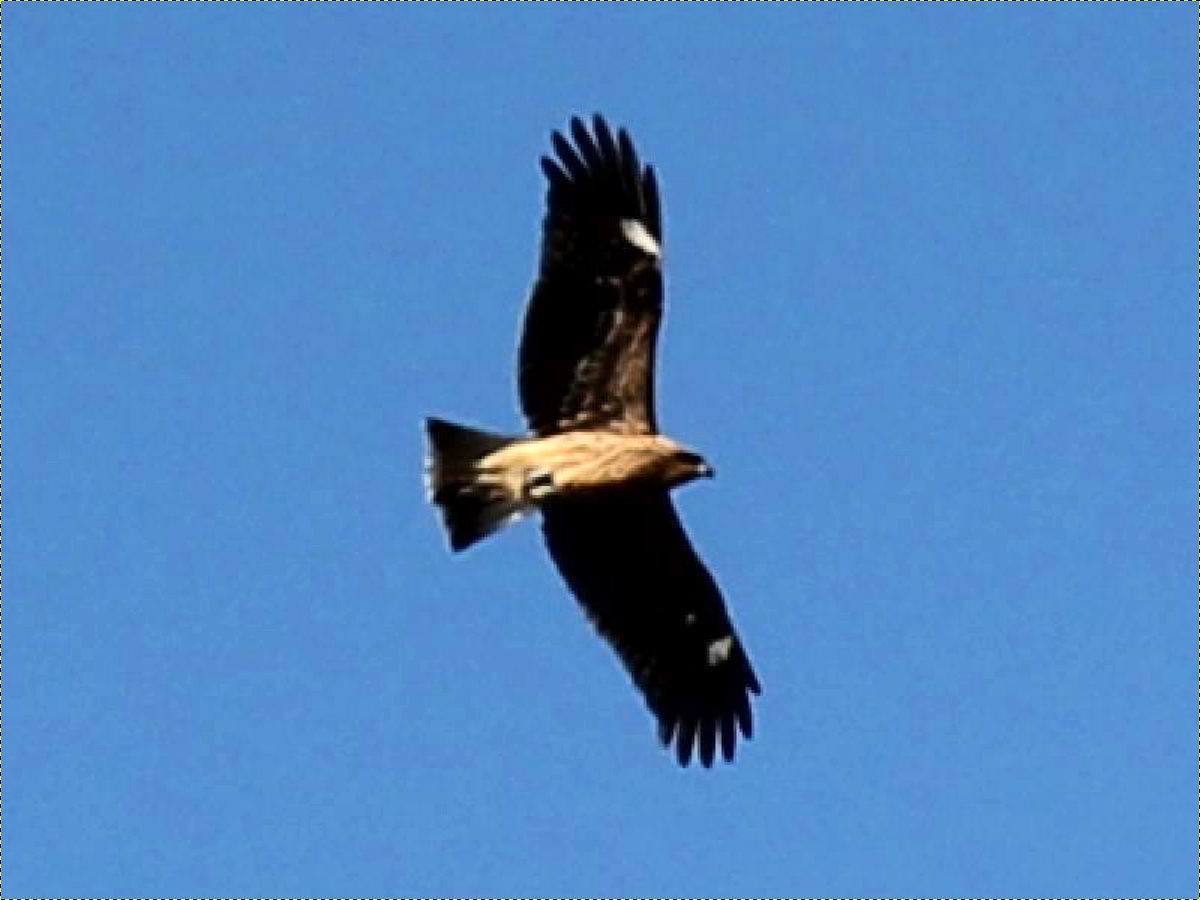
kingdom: Animalia
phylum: Chordata
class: Aves
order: Accipitriformes
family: Accipitridae
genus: Milvus
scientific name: Milvus migrans
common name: Black kite
